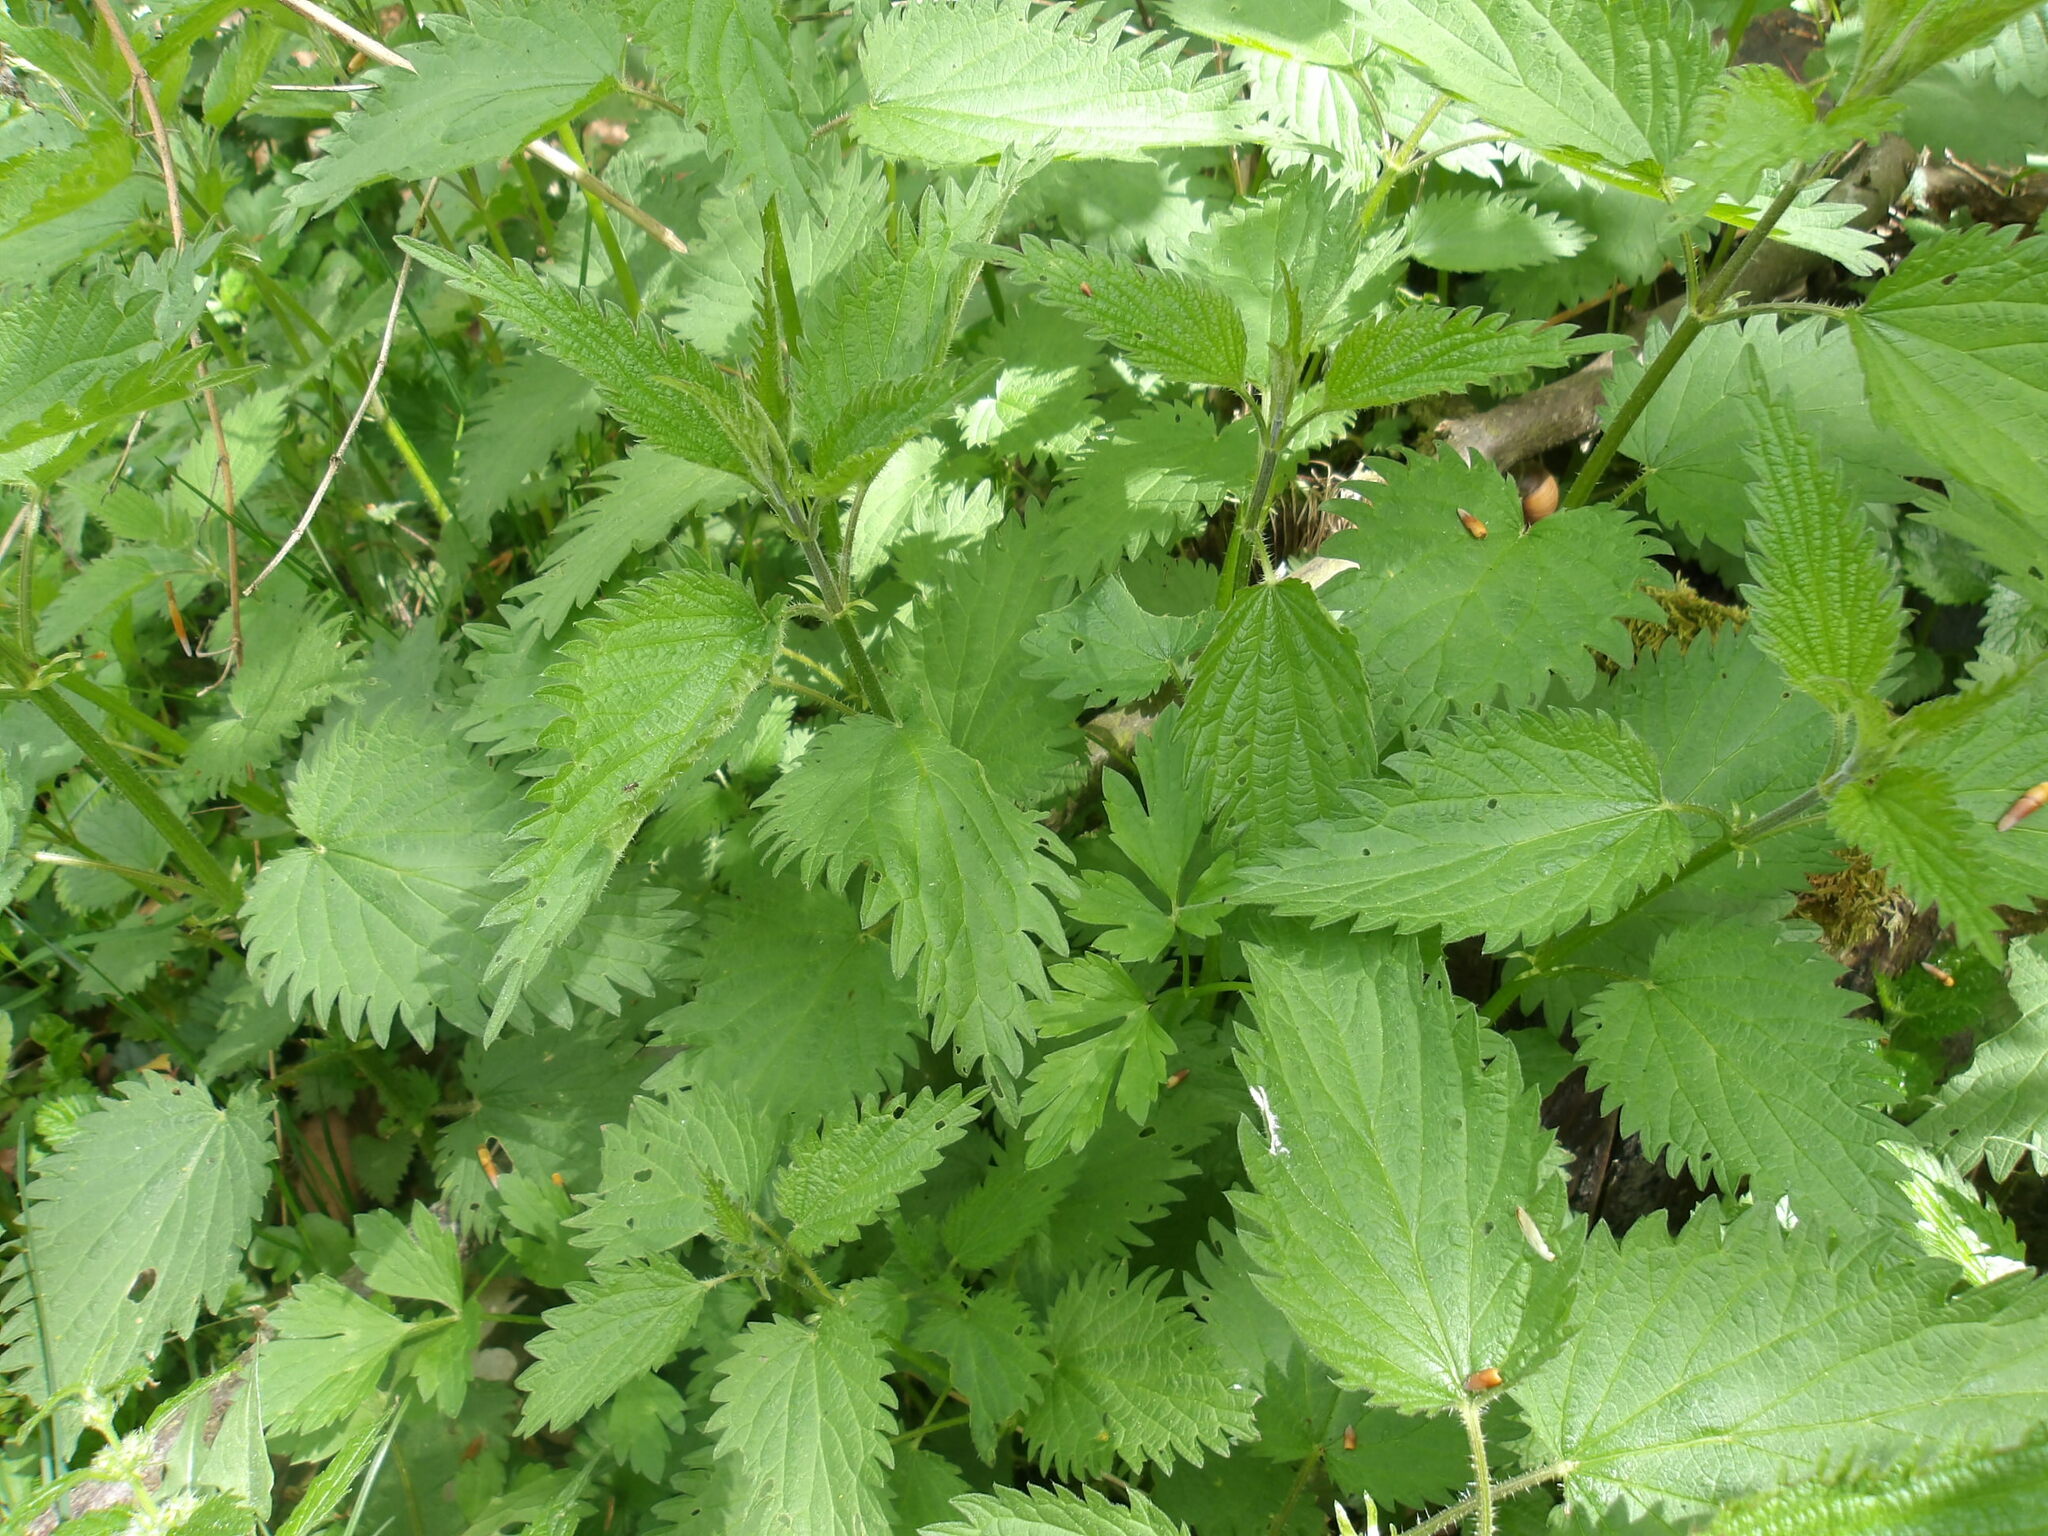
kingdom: Plantae
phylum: Tracheophyta
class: Magnoliopsida
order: Rosales
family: Urticaceae
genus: Urtica
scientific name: Urtica dioica
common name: Common nettle
